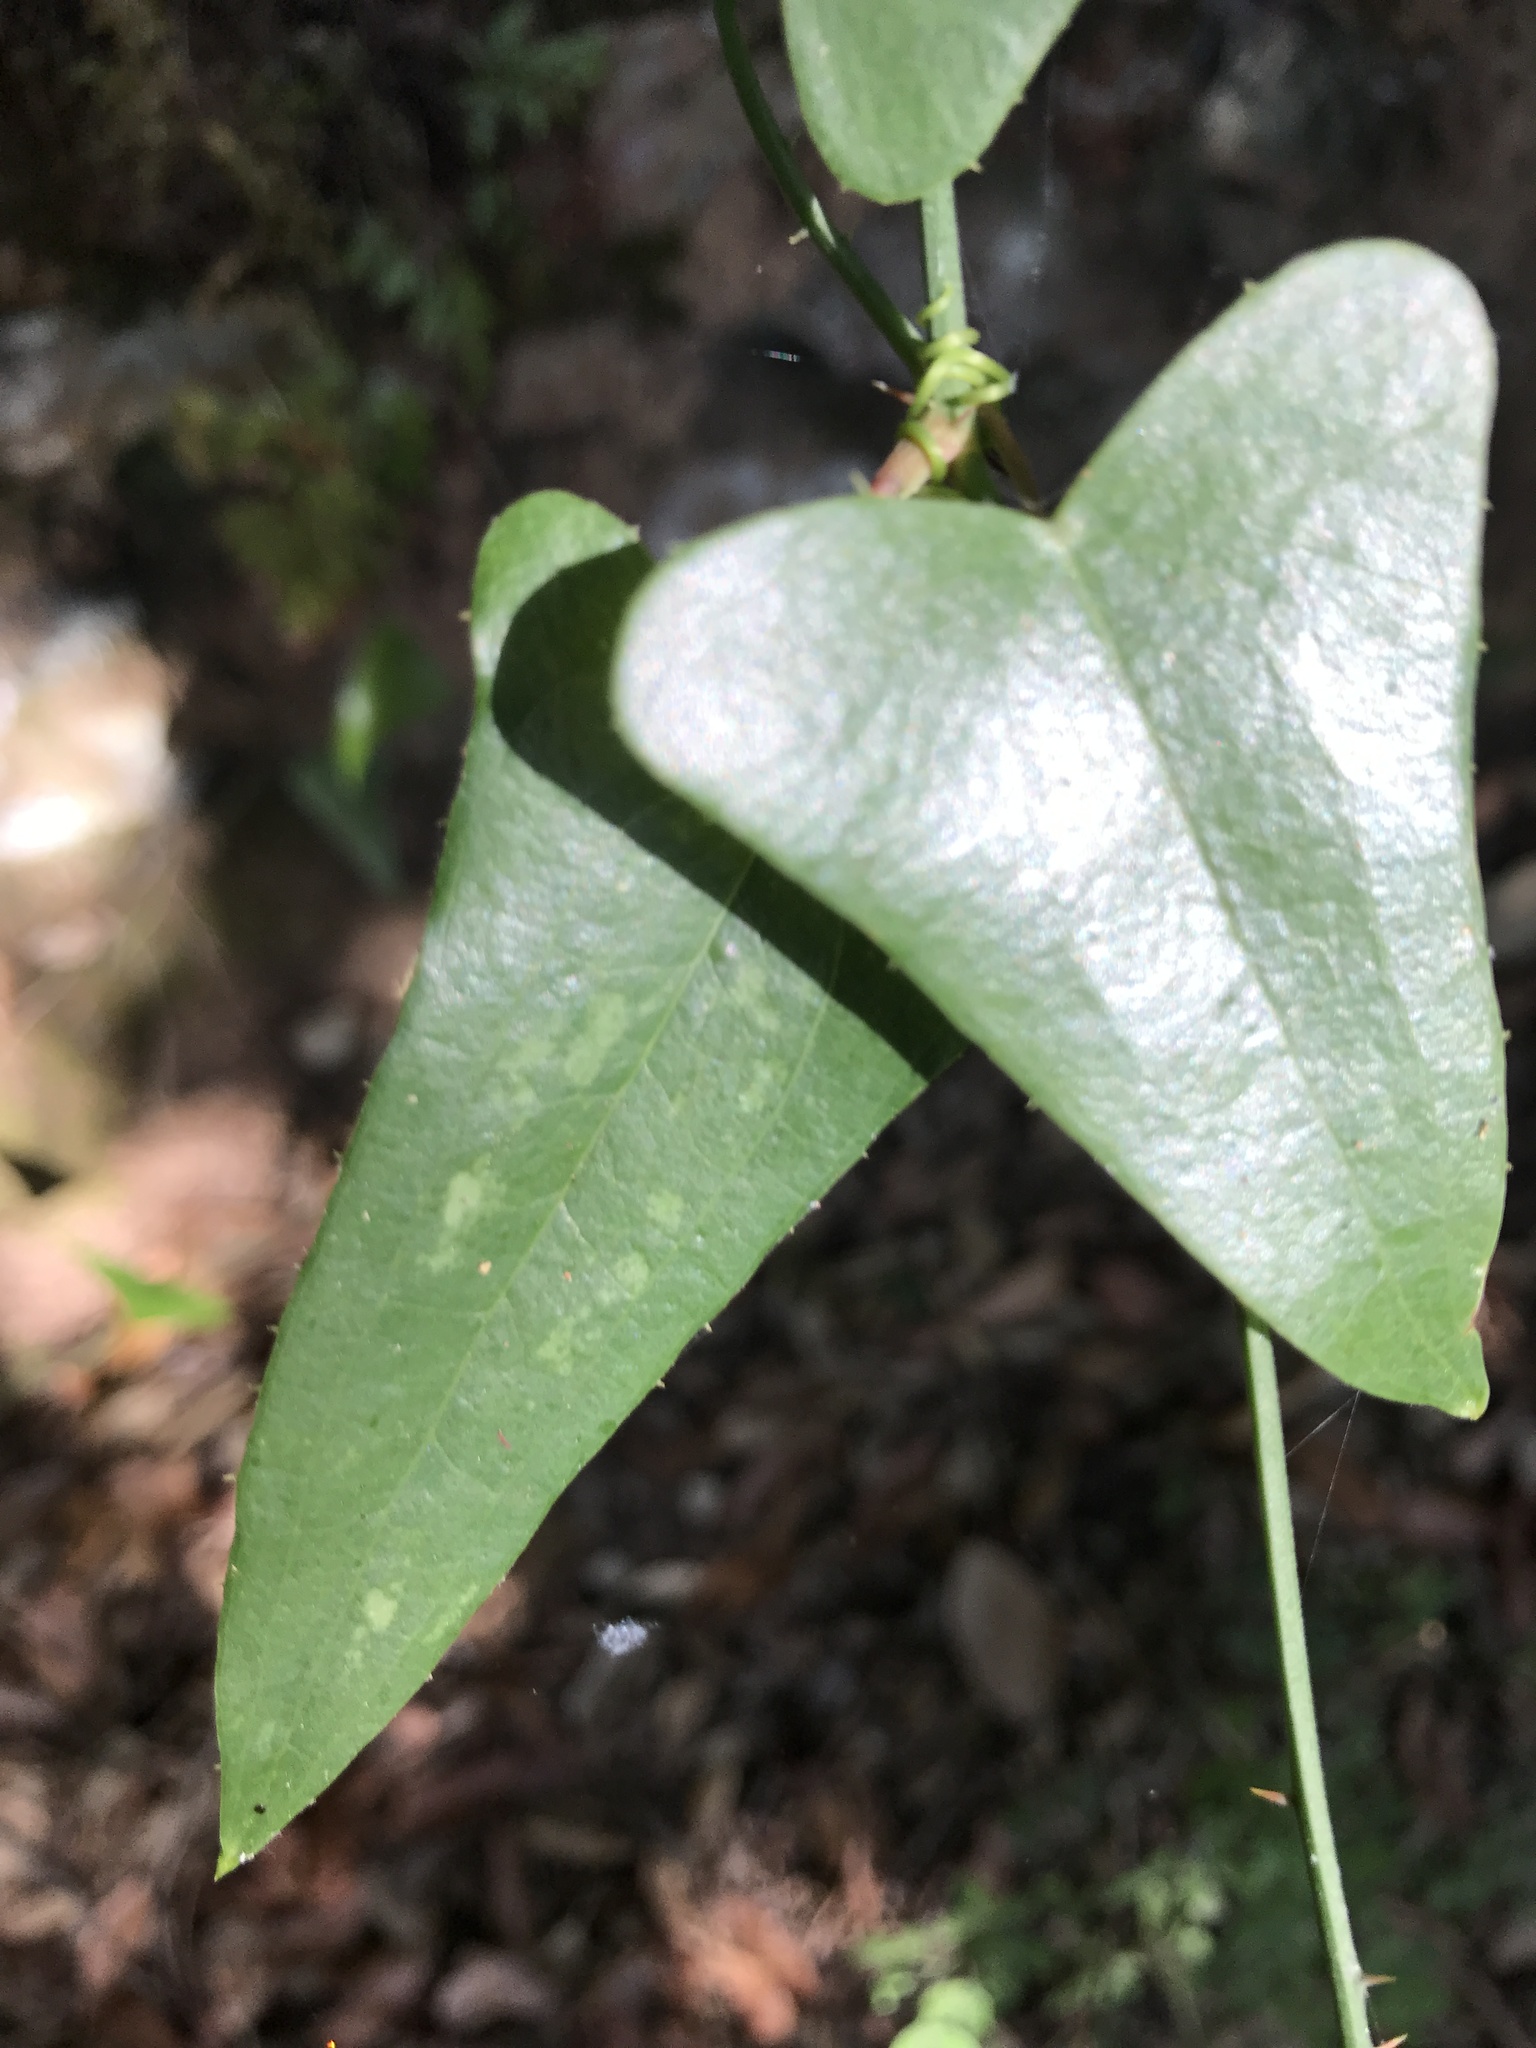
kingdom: Plantae
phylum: Tracheophyta
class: Liliopsida
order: Liliales
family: Smilacaceae
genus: Smilax
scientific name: Smilax aspera
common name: Common smilax
